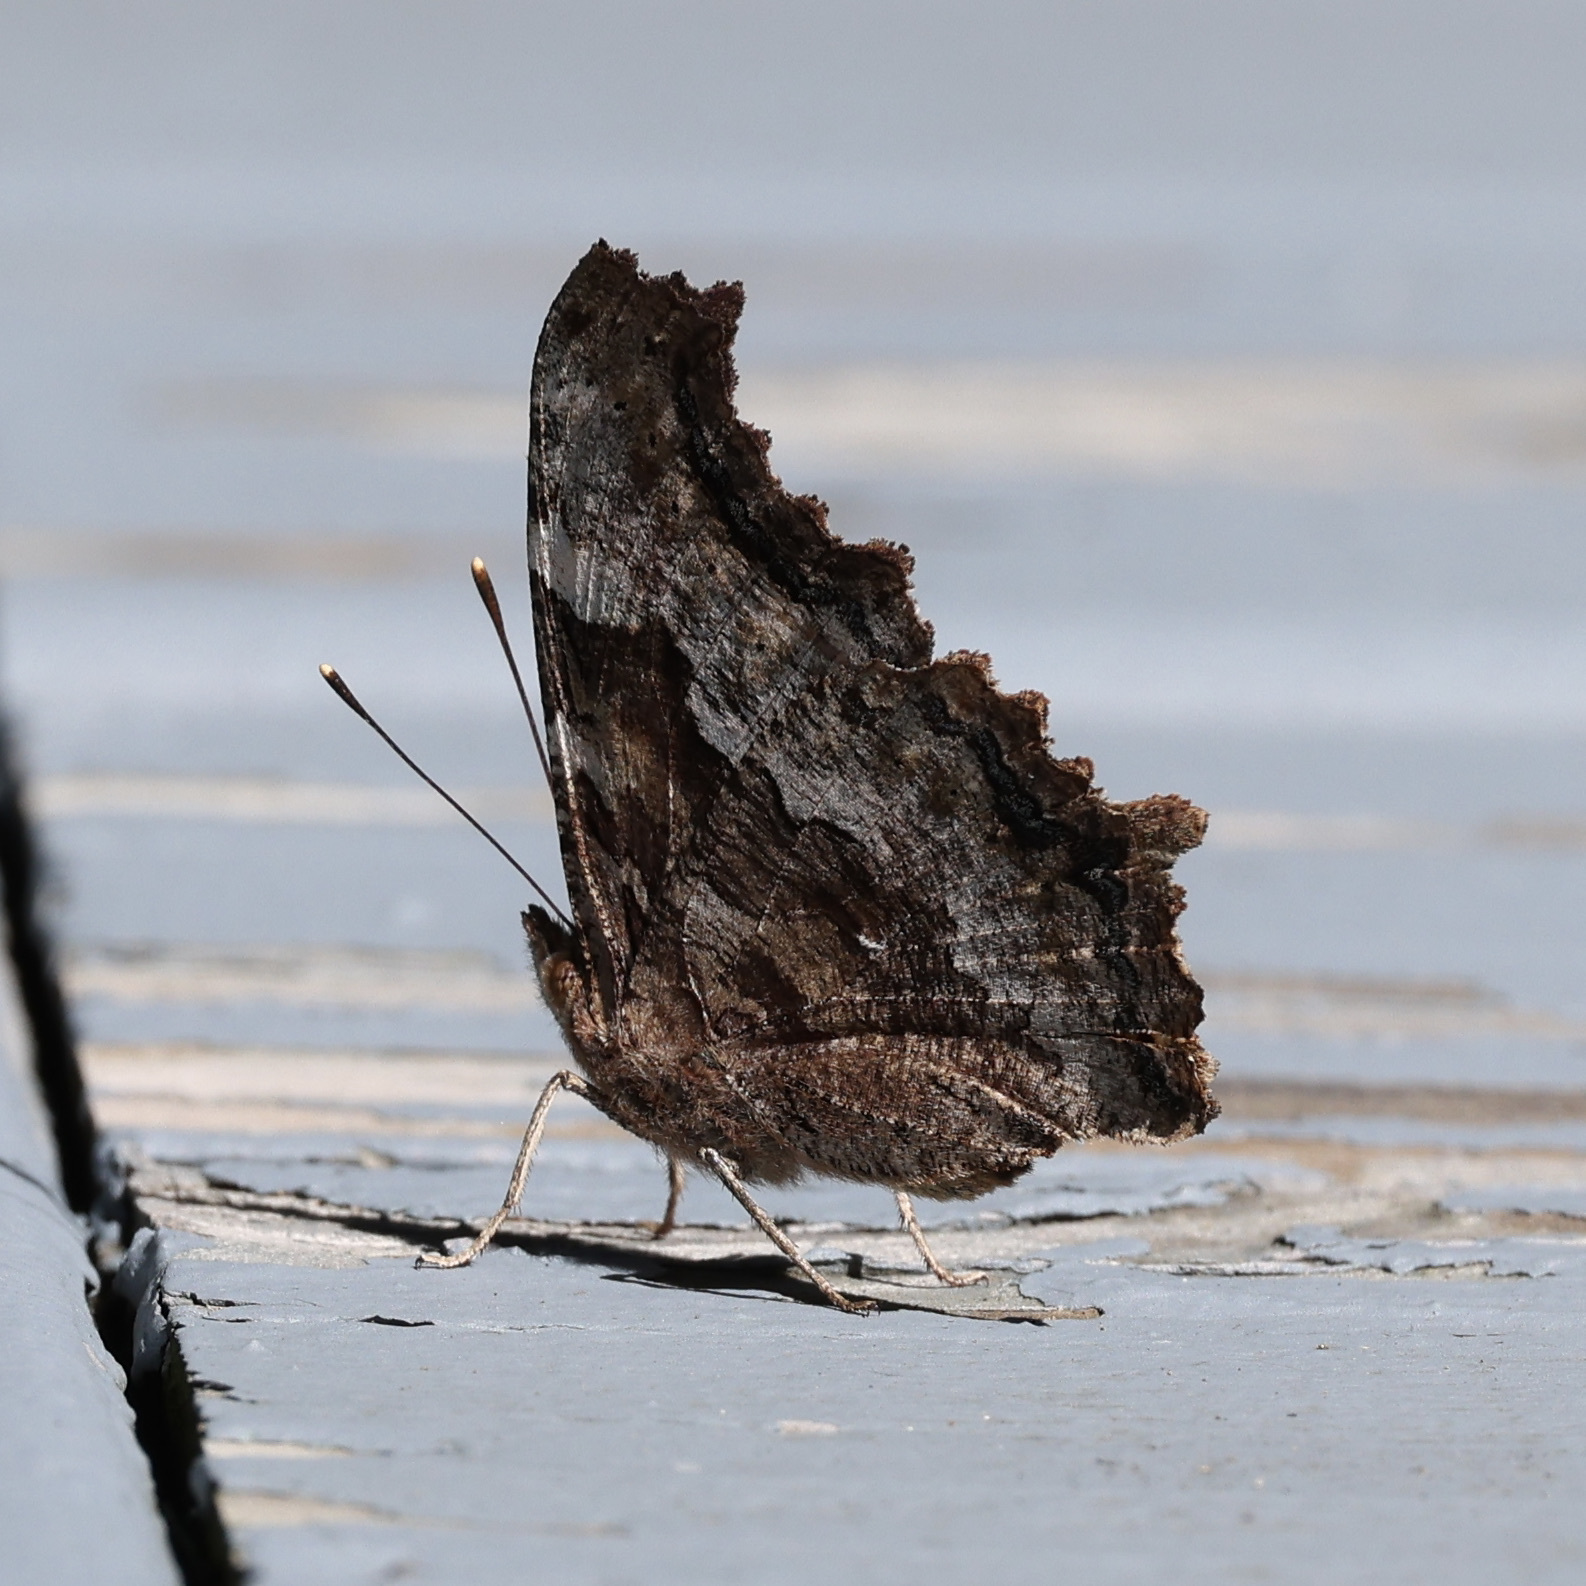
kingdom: Animalia
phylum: Arthropoda
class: Insecta
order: Lepidoptera
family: Nymphalidae
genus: Polygonia
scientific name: Polygonia vaualbum
